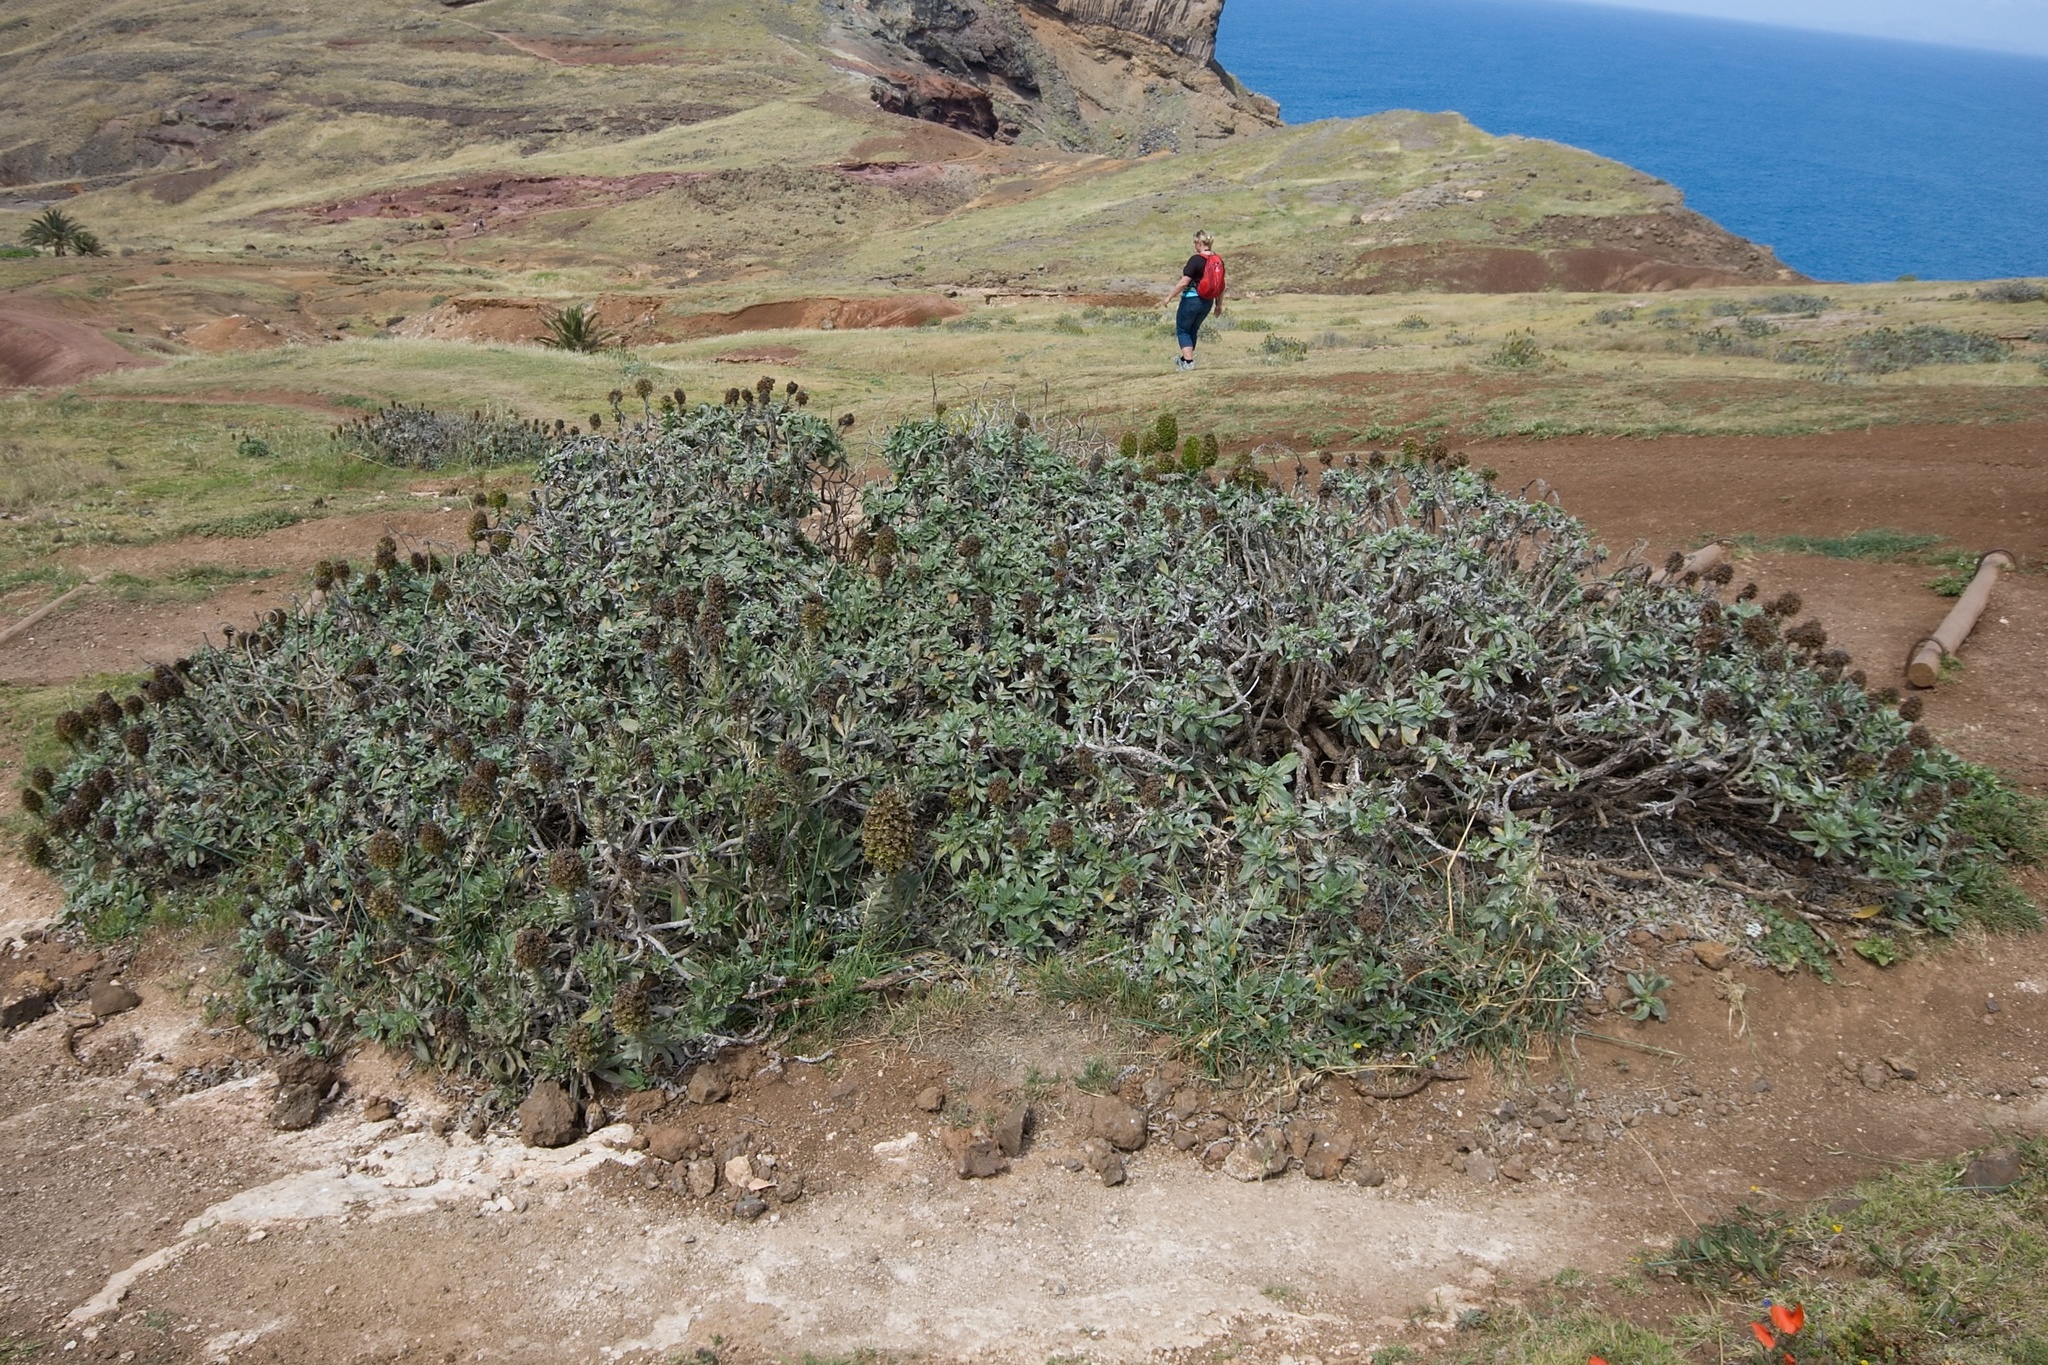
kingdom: Plantae
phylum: Tracheophyta
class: Magnoliopsida
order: Boraginales
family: Boraginaceae
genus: Echium
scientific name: Echium nervosum
